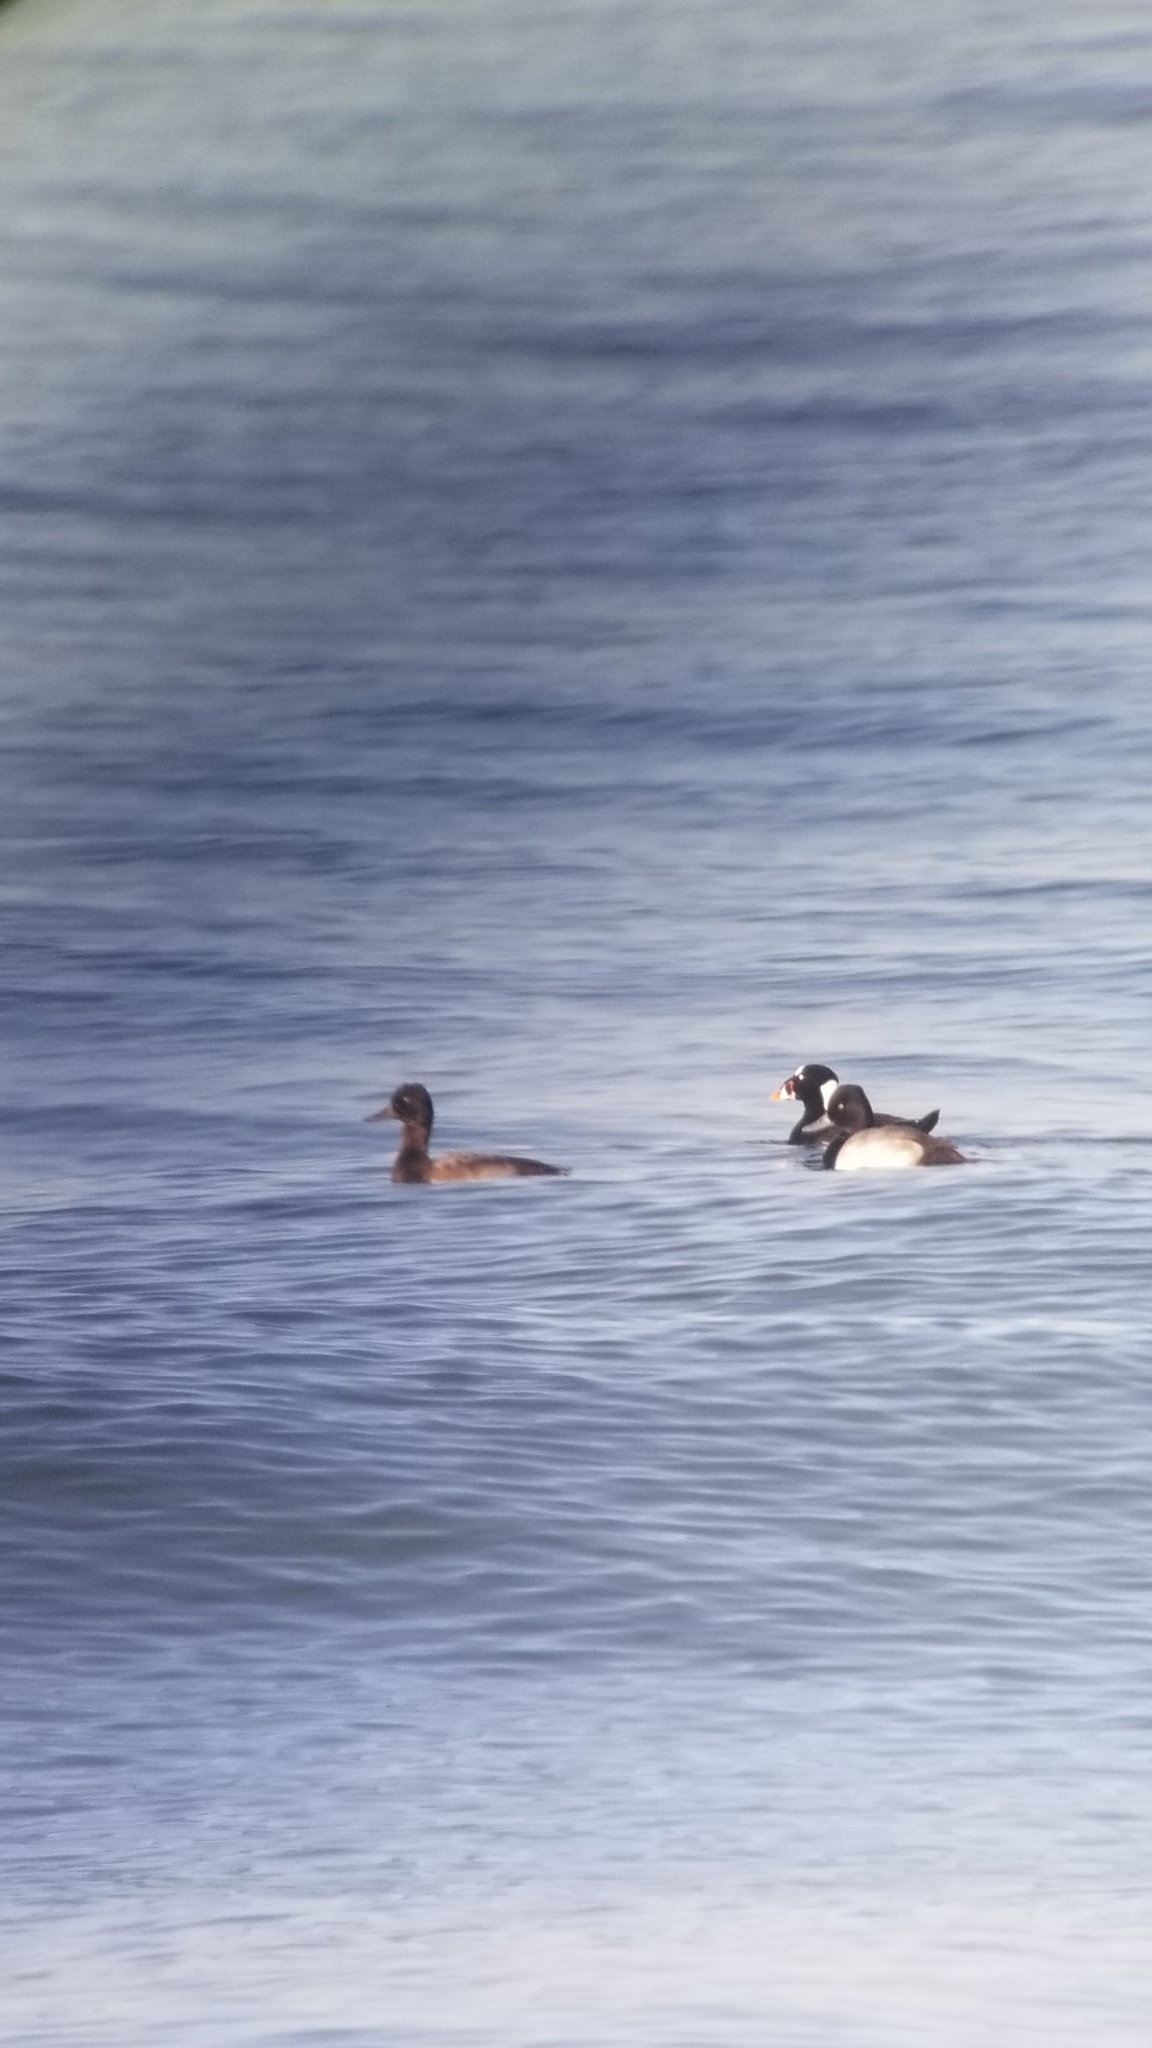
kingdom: Animalia
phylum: Chordata
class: Aves
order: Anseriformes
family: Anatidae
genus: Melanitta
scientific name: Melanitta perspicillata
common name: Surf scoter
